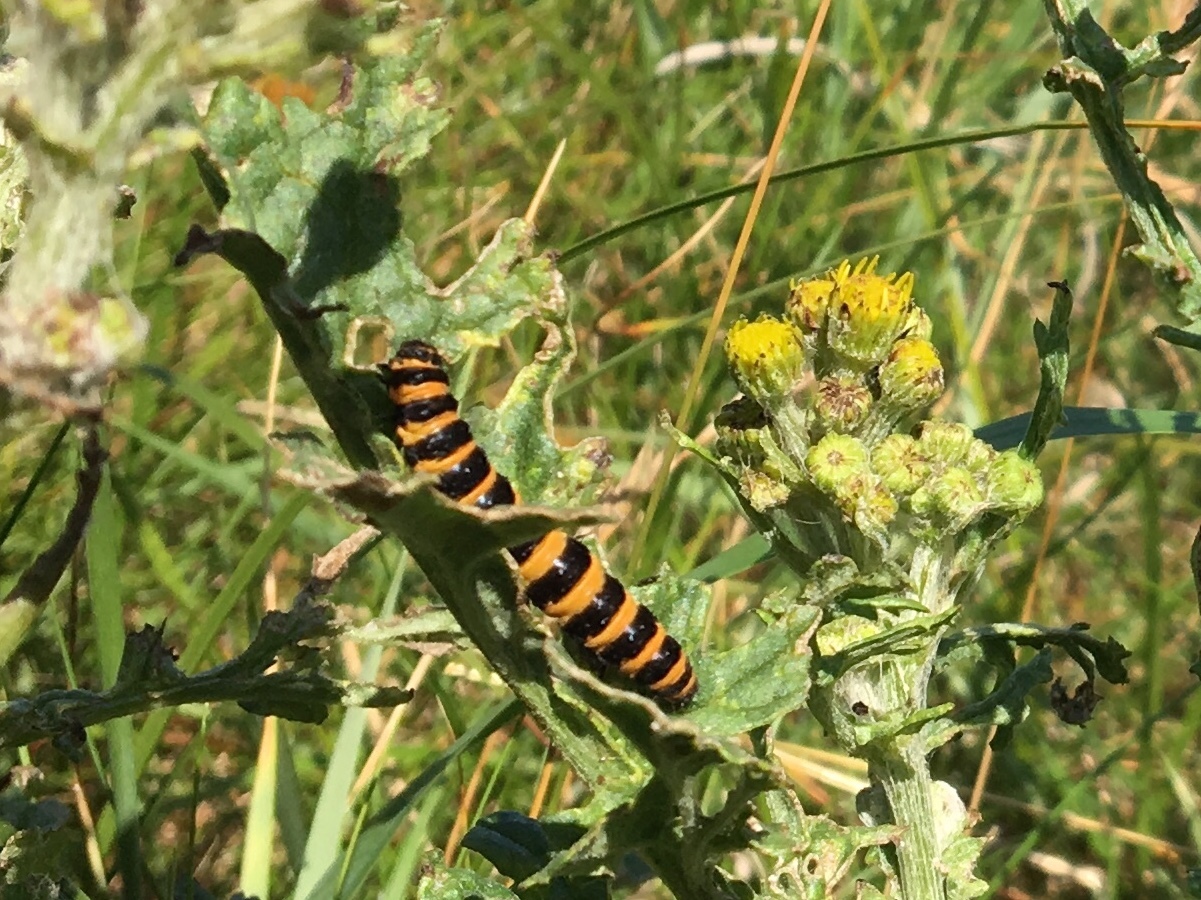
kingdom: Animalia
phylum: Arthropoda
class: Insecta
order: Lepidoptera
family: Erebidae
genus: Tyria
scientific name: Tyria jacobaeae
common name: Cinnabar
